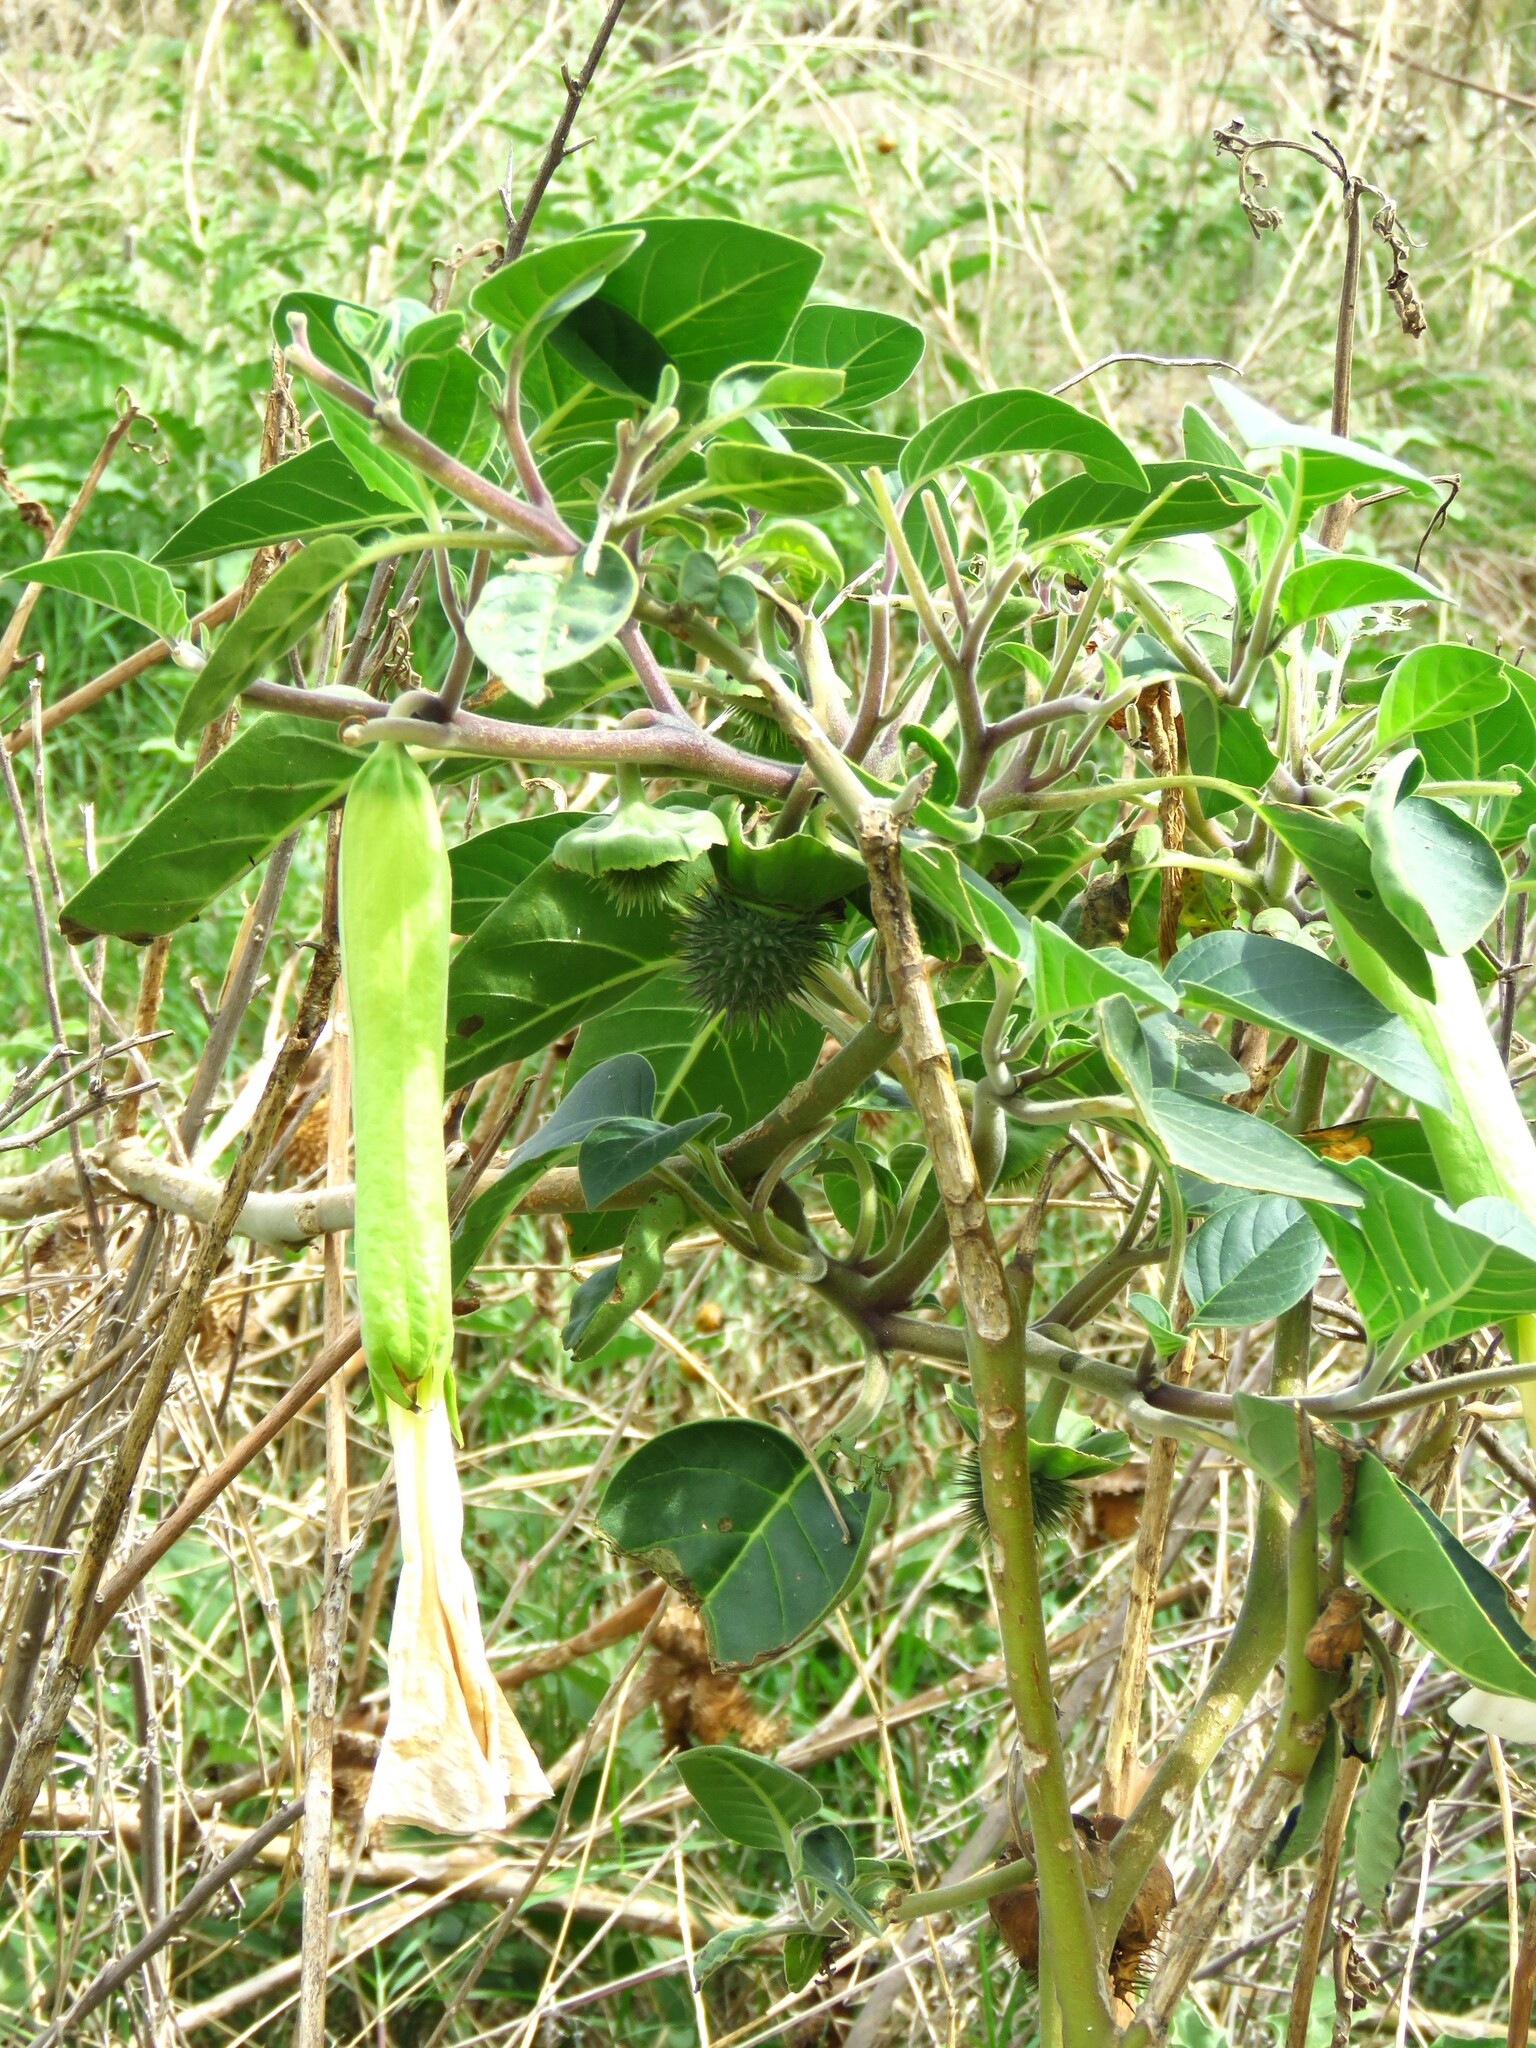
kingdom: Plantae
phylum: Tracheophyta
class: Magnoliopsida
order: Solanales
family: Solanaceae
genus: Datura
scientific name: Datura innoxia
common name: Downy thorn-apple
